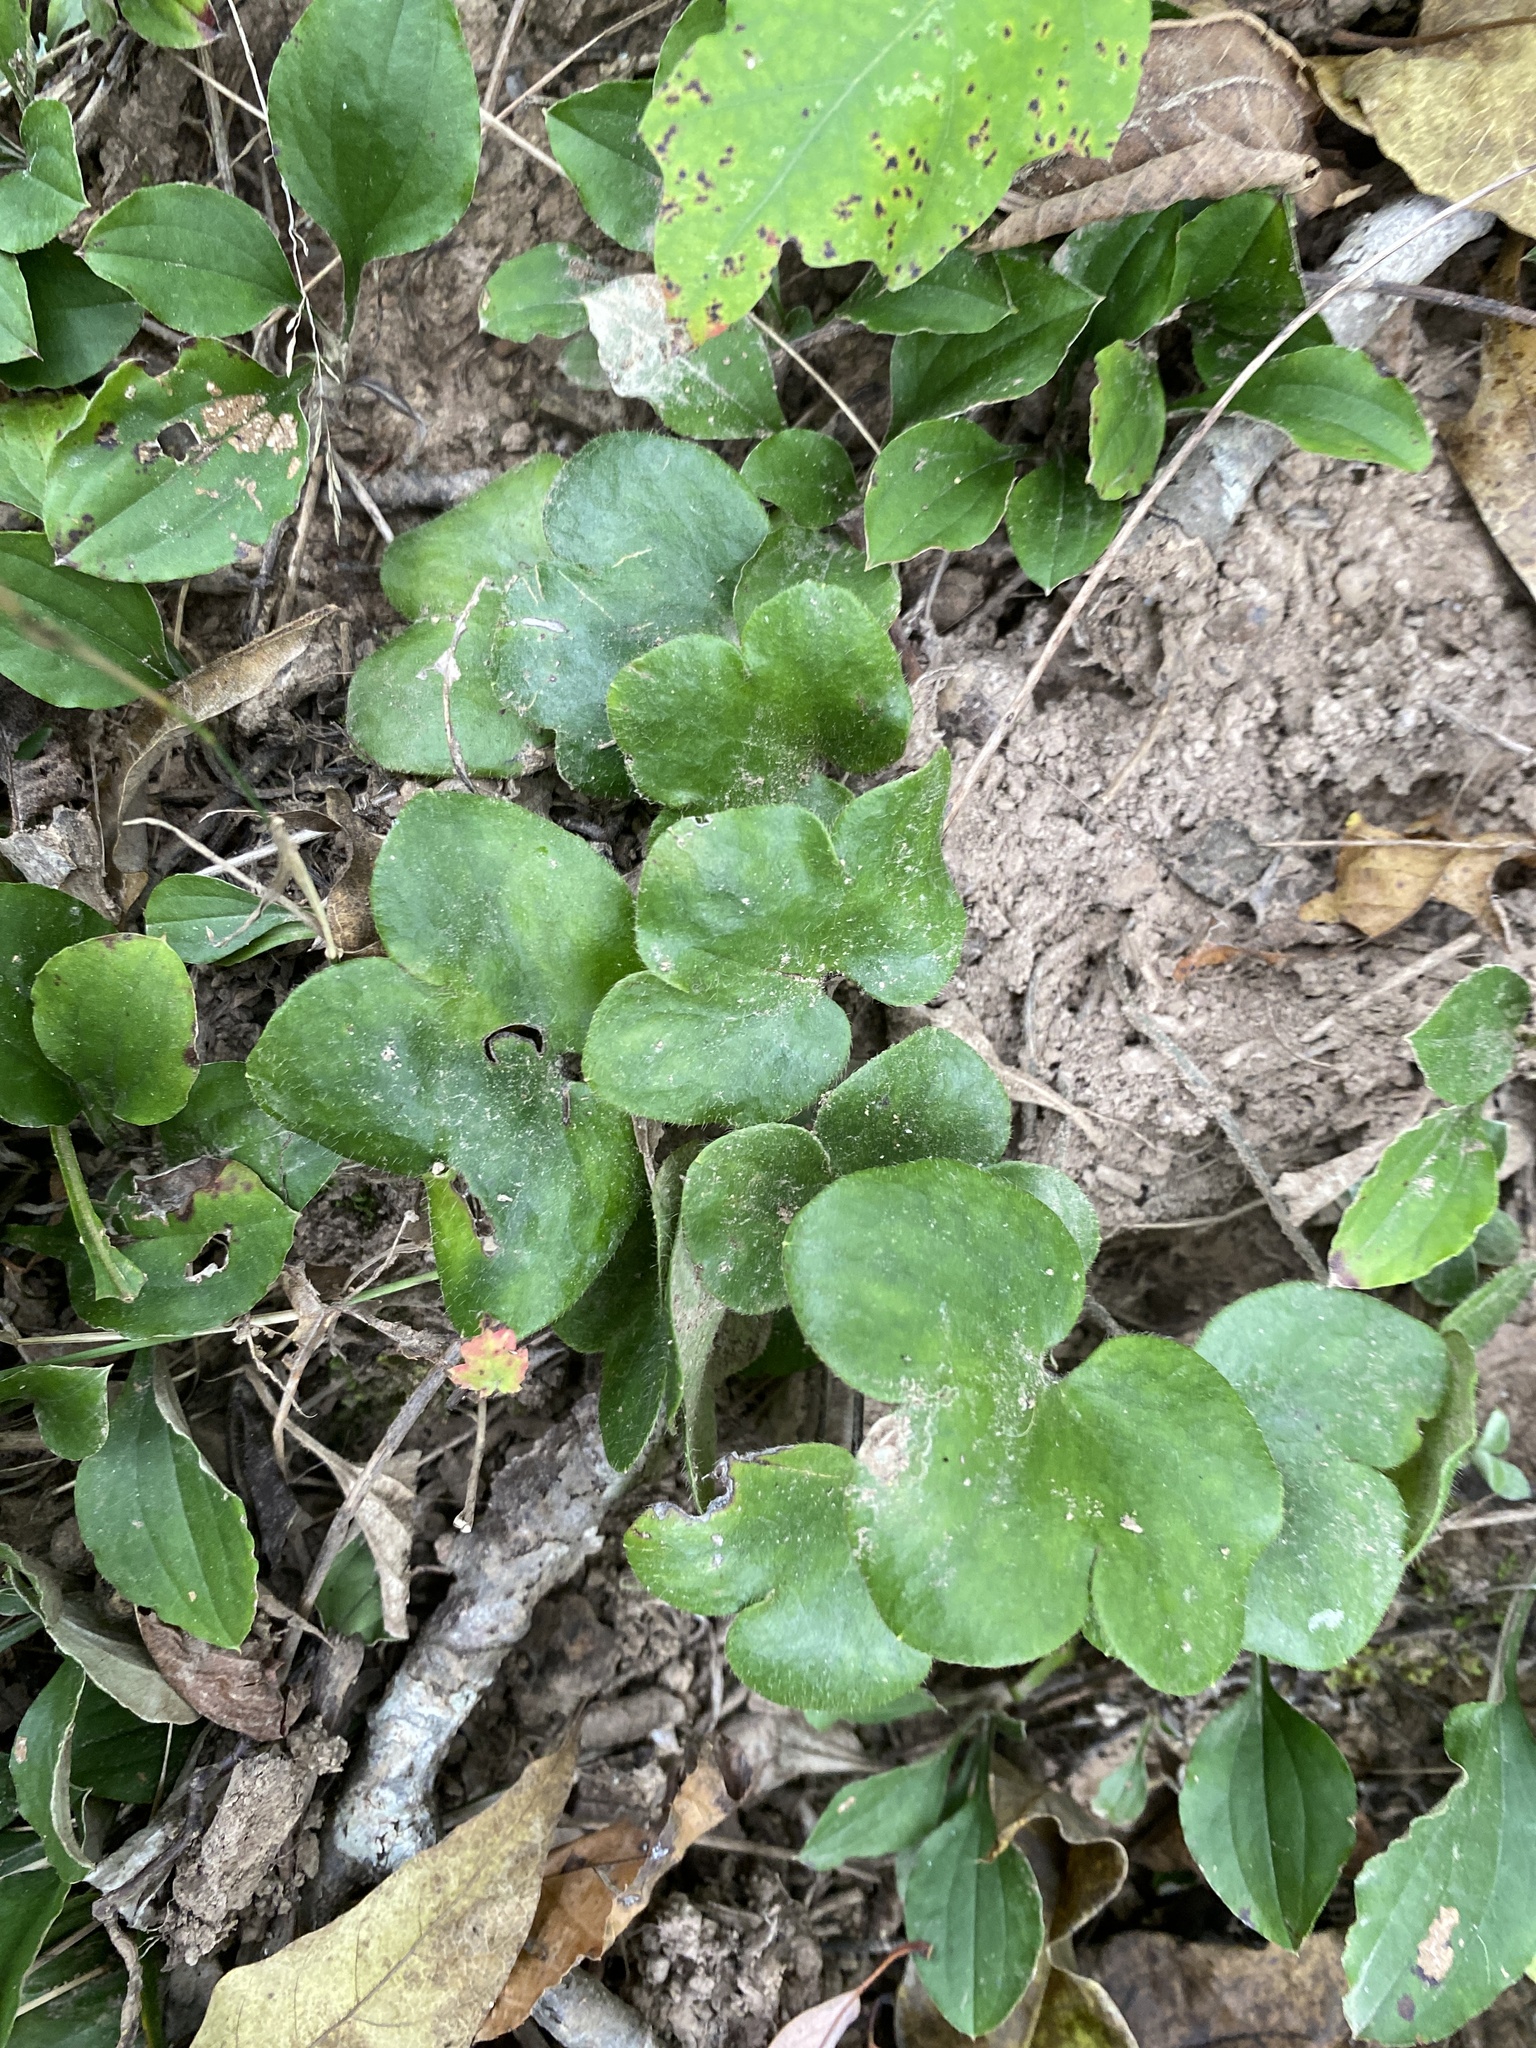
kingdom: Plantae
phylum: Tracheophyta
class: Magnoliopsida
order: Ranunculales
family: Ranunculaceae
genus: Hepatica
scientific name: Hepatica americana
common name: American hepatica
